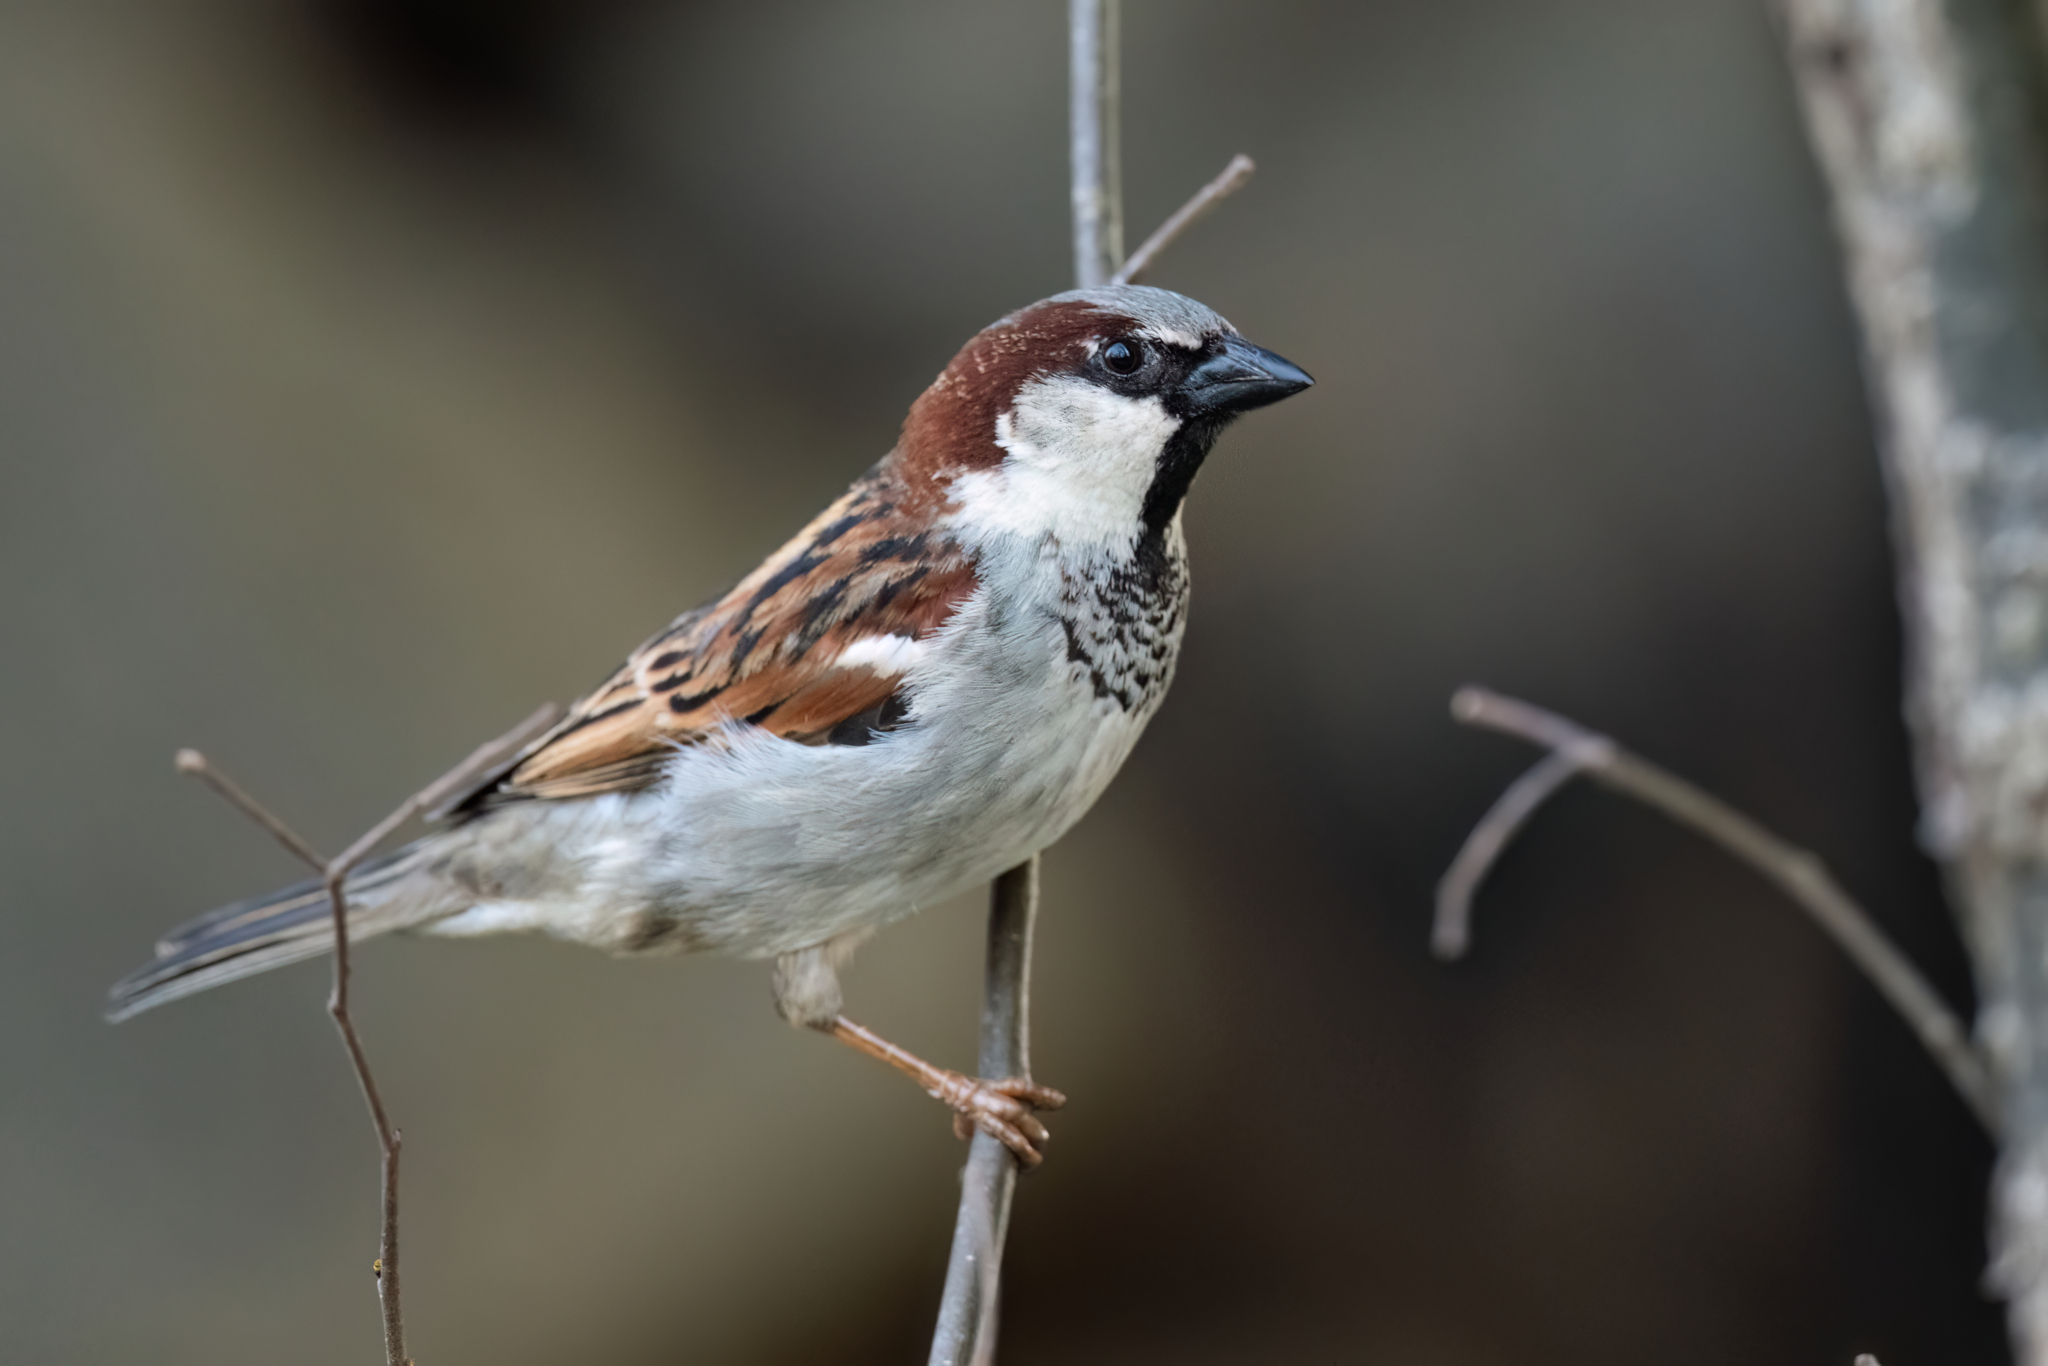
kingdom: Animalia
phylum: Chordata
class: Aves
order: Passeriformes
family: Passeridae
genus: Passer
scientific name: Passer domesticus
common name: House sparrow
